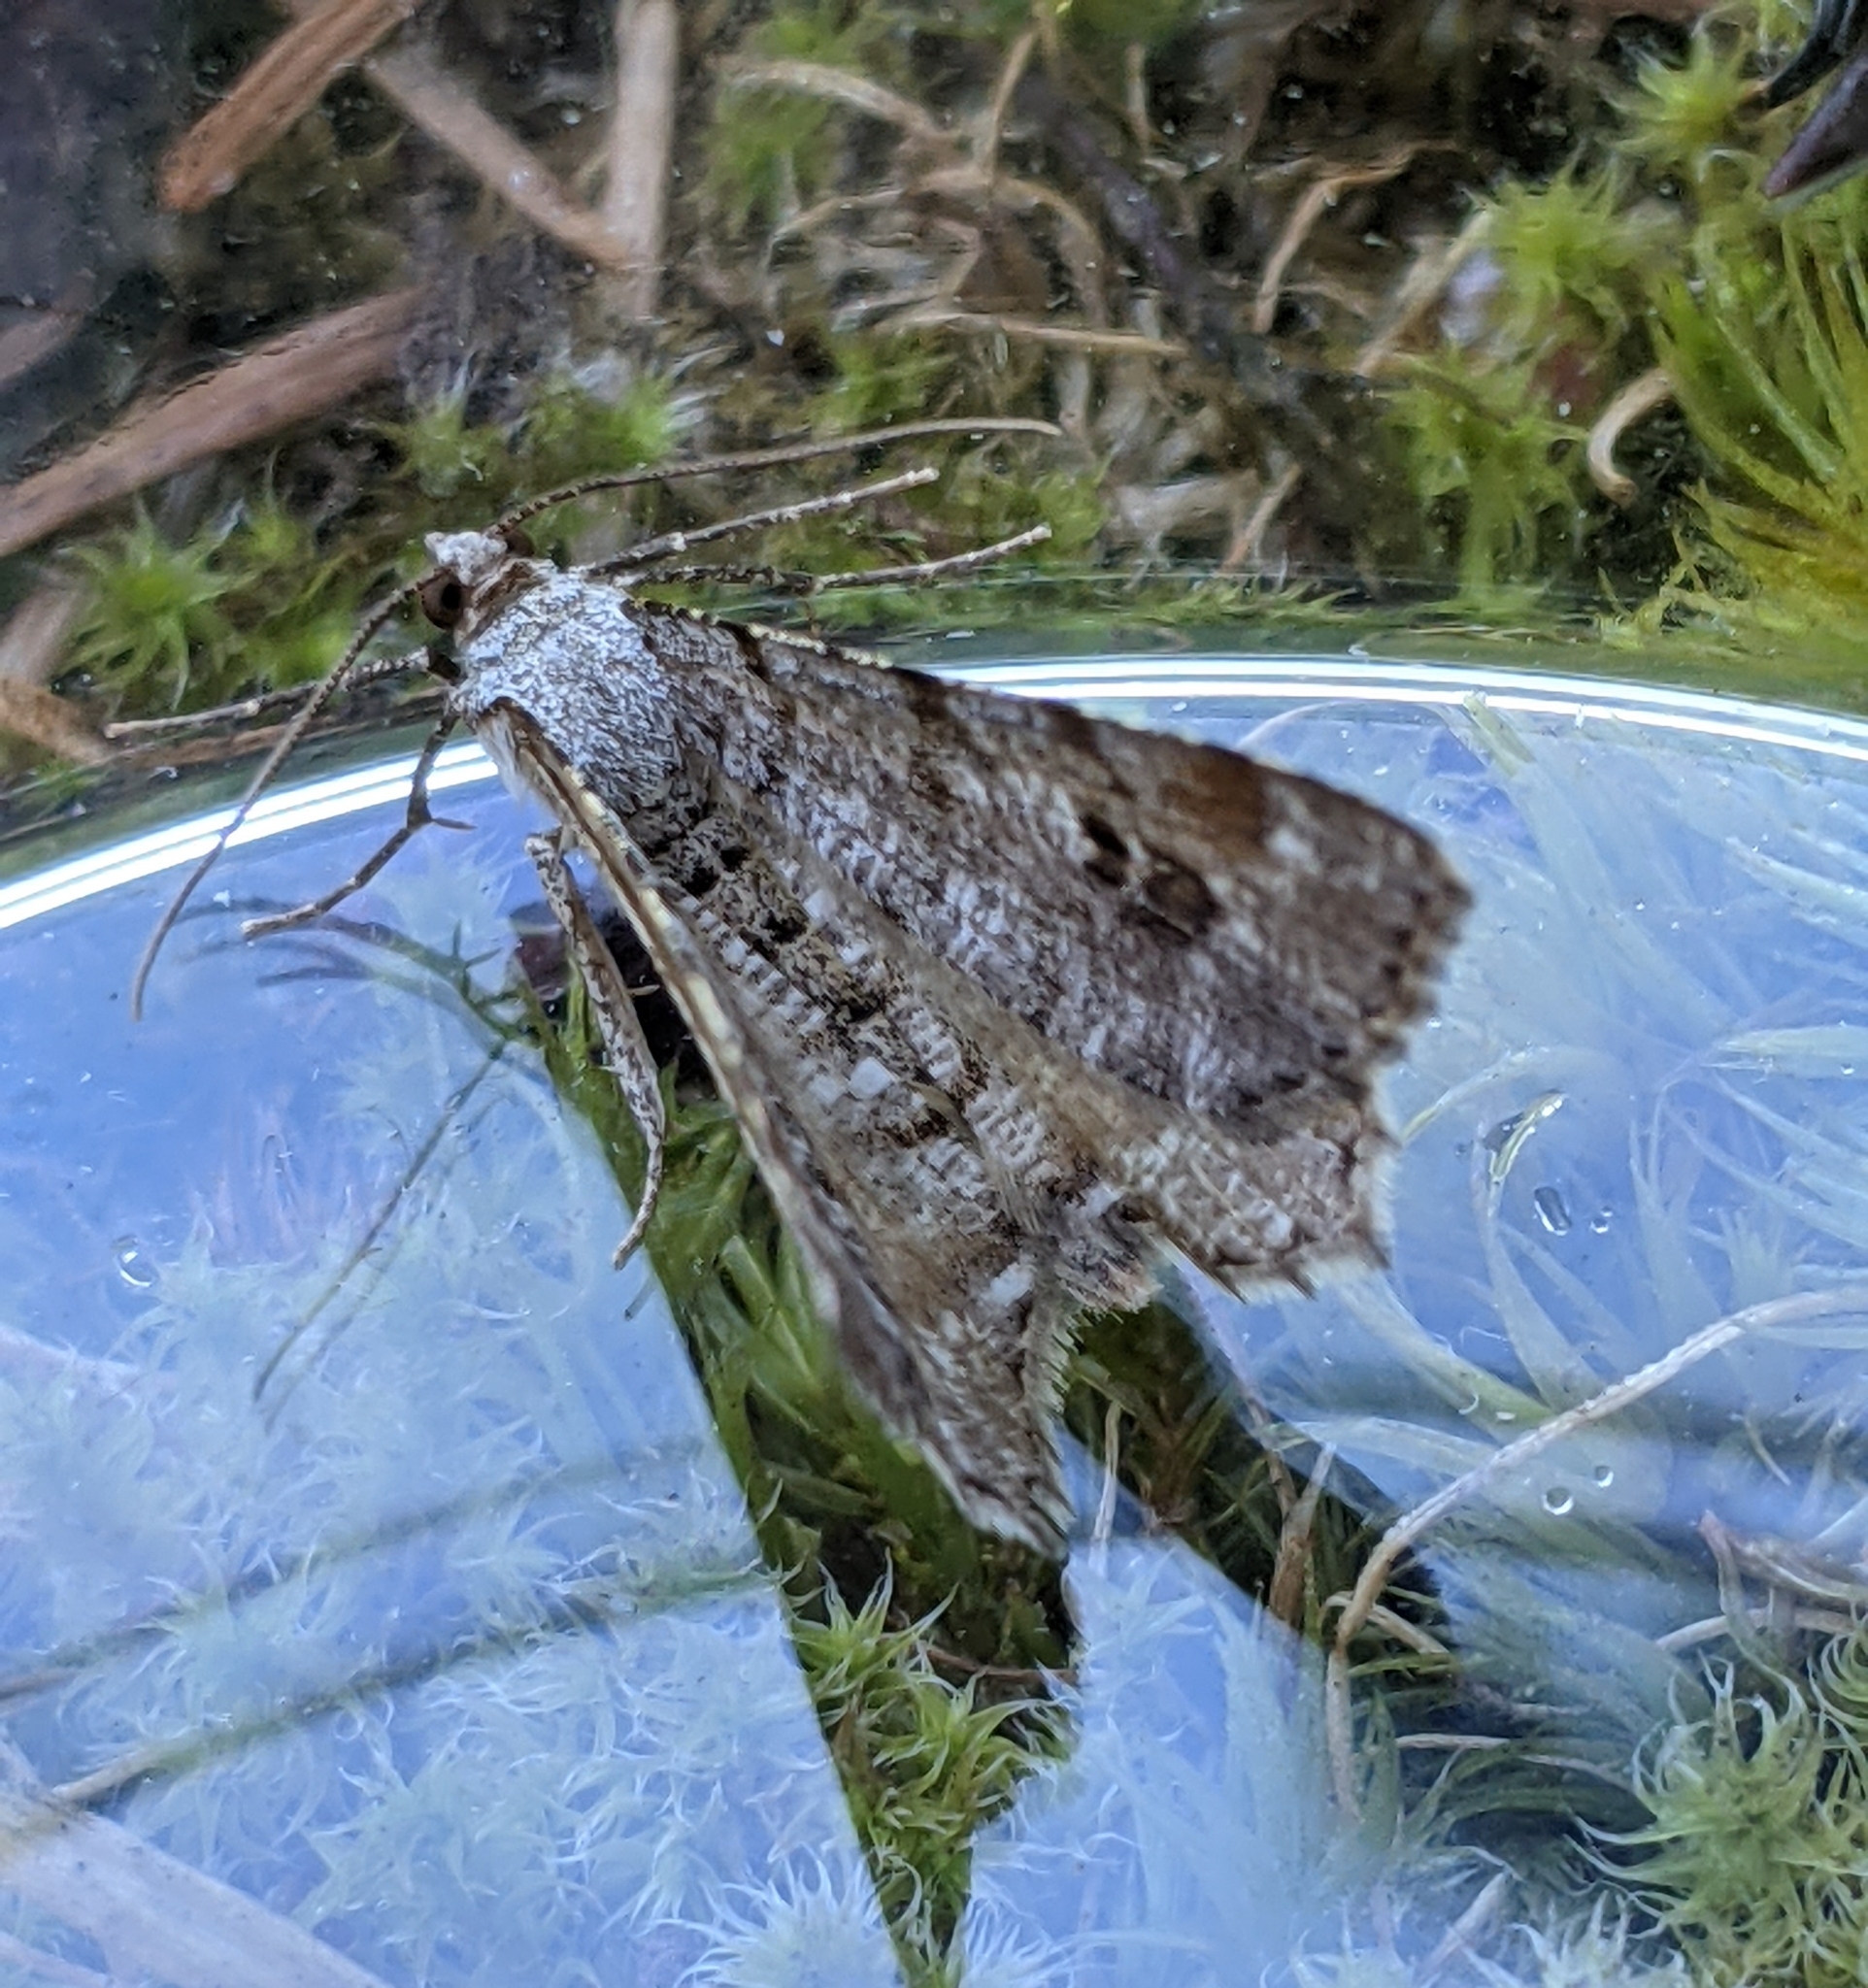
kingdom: Animalia
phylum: Arthropoda
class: Insecta
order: Lepidoptera
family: Geometridae
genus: Macaria
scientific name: Macaria signaria
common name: Dusky peacock
